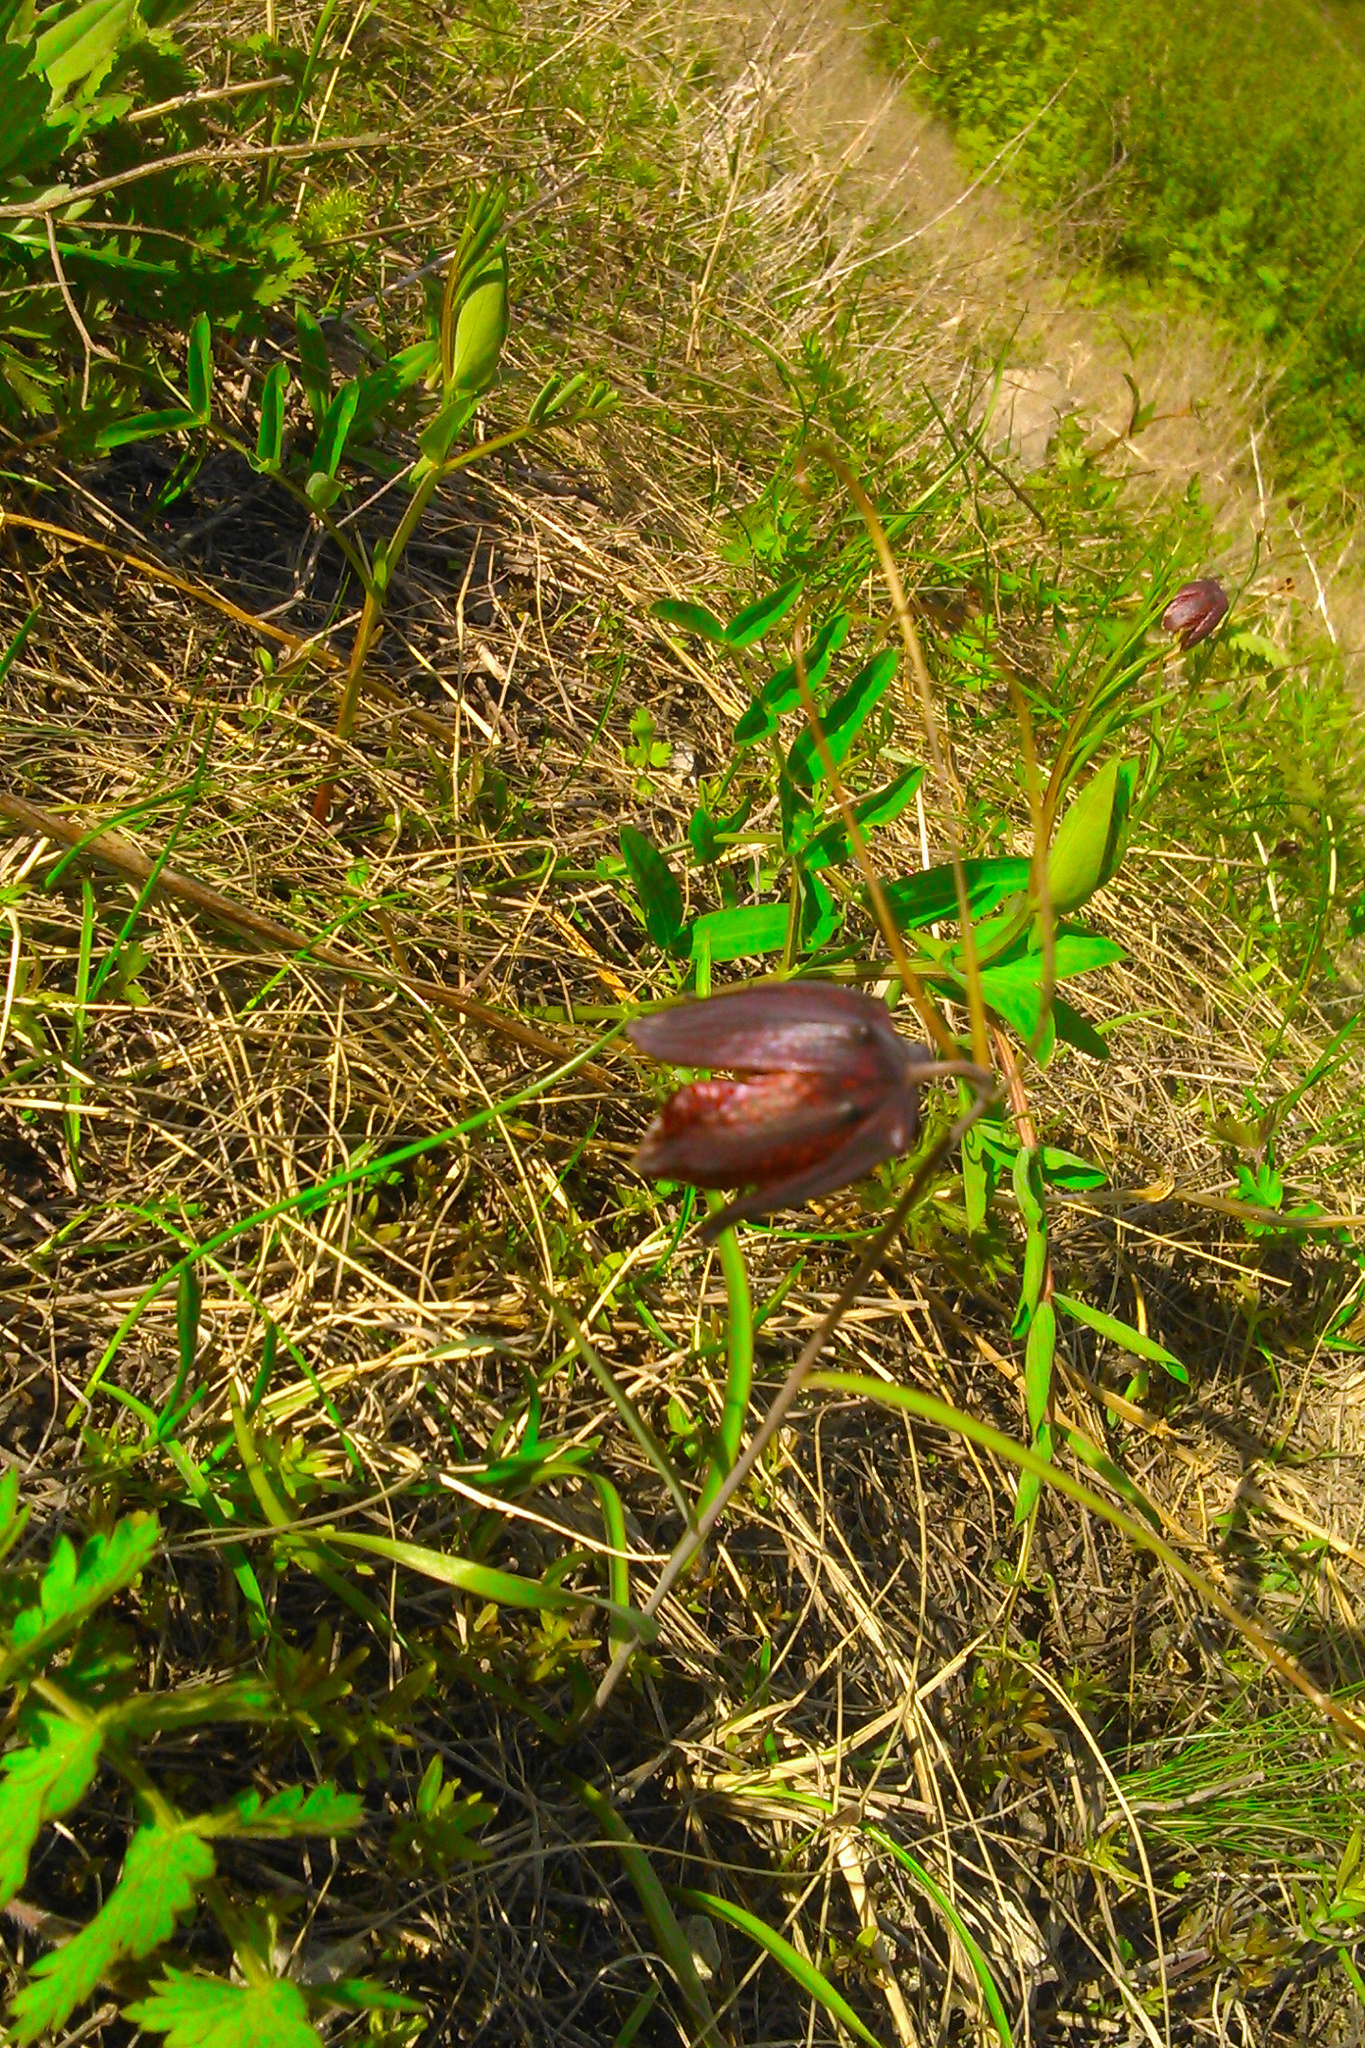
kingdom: Plantae
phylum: Tracheophyta
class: Liliopsida
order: Liliales
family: Liliaceae
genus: Fritillaria
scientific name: Fritillaria ruthenica
